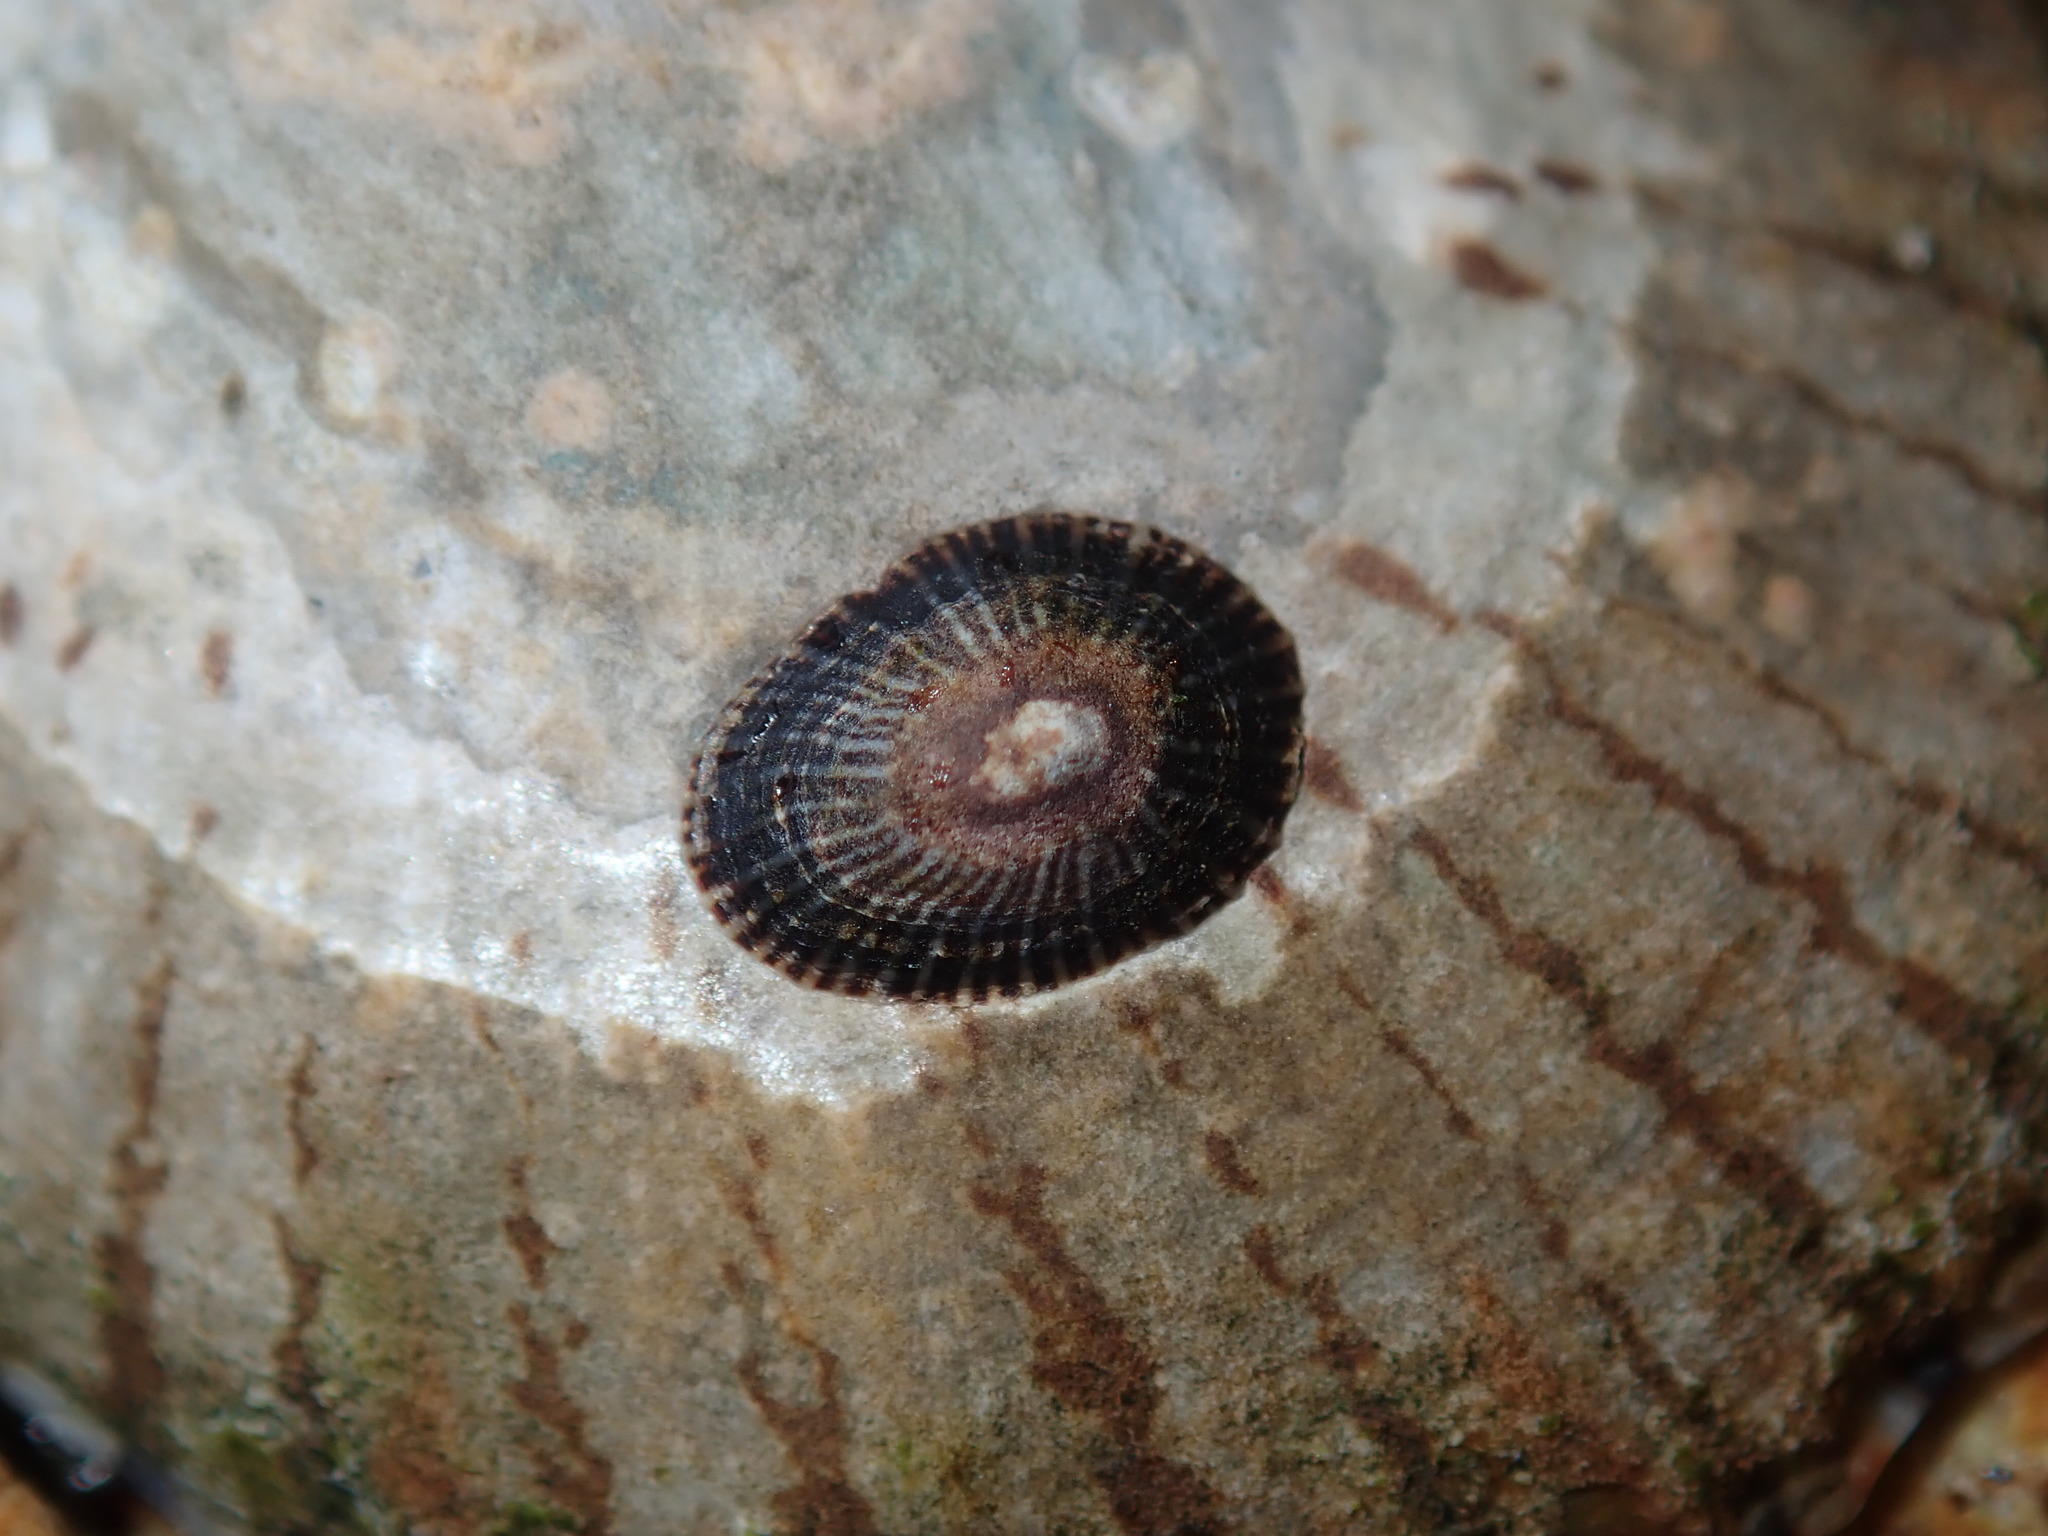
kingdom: Animalia
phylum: Mollusca
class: Gastropoda
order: Siphonariida
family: Siphonariidae
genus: Siphonaria
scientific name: Siphonaria funiculata
